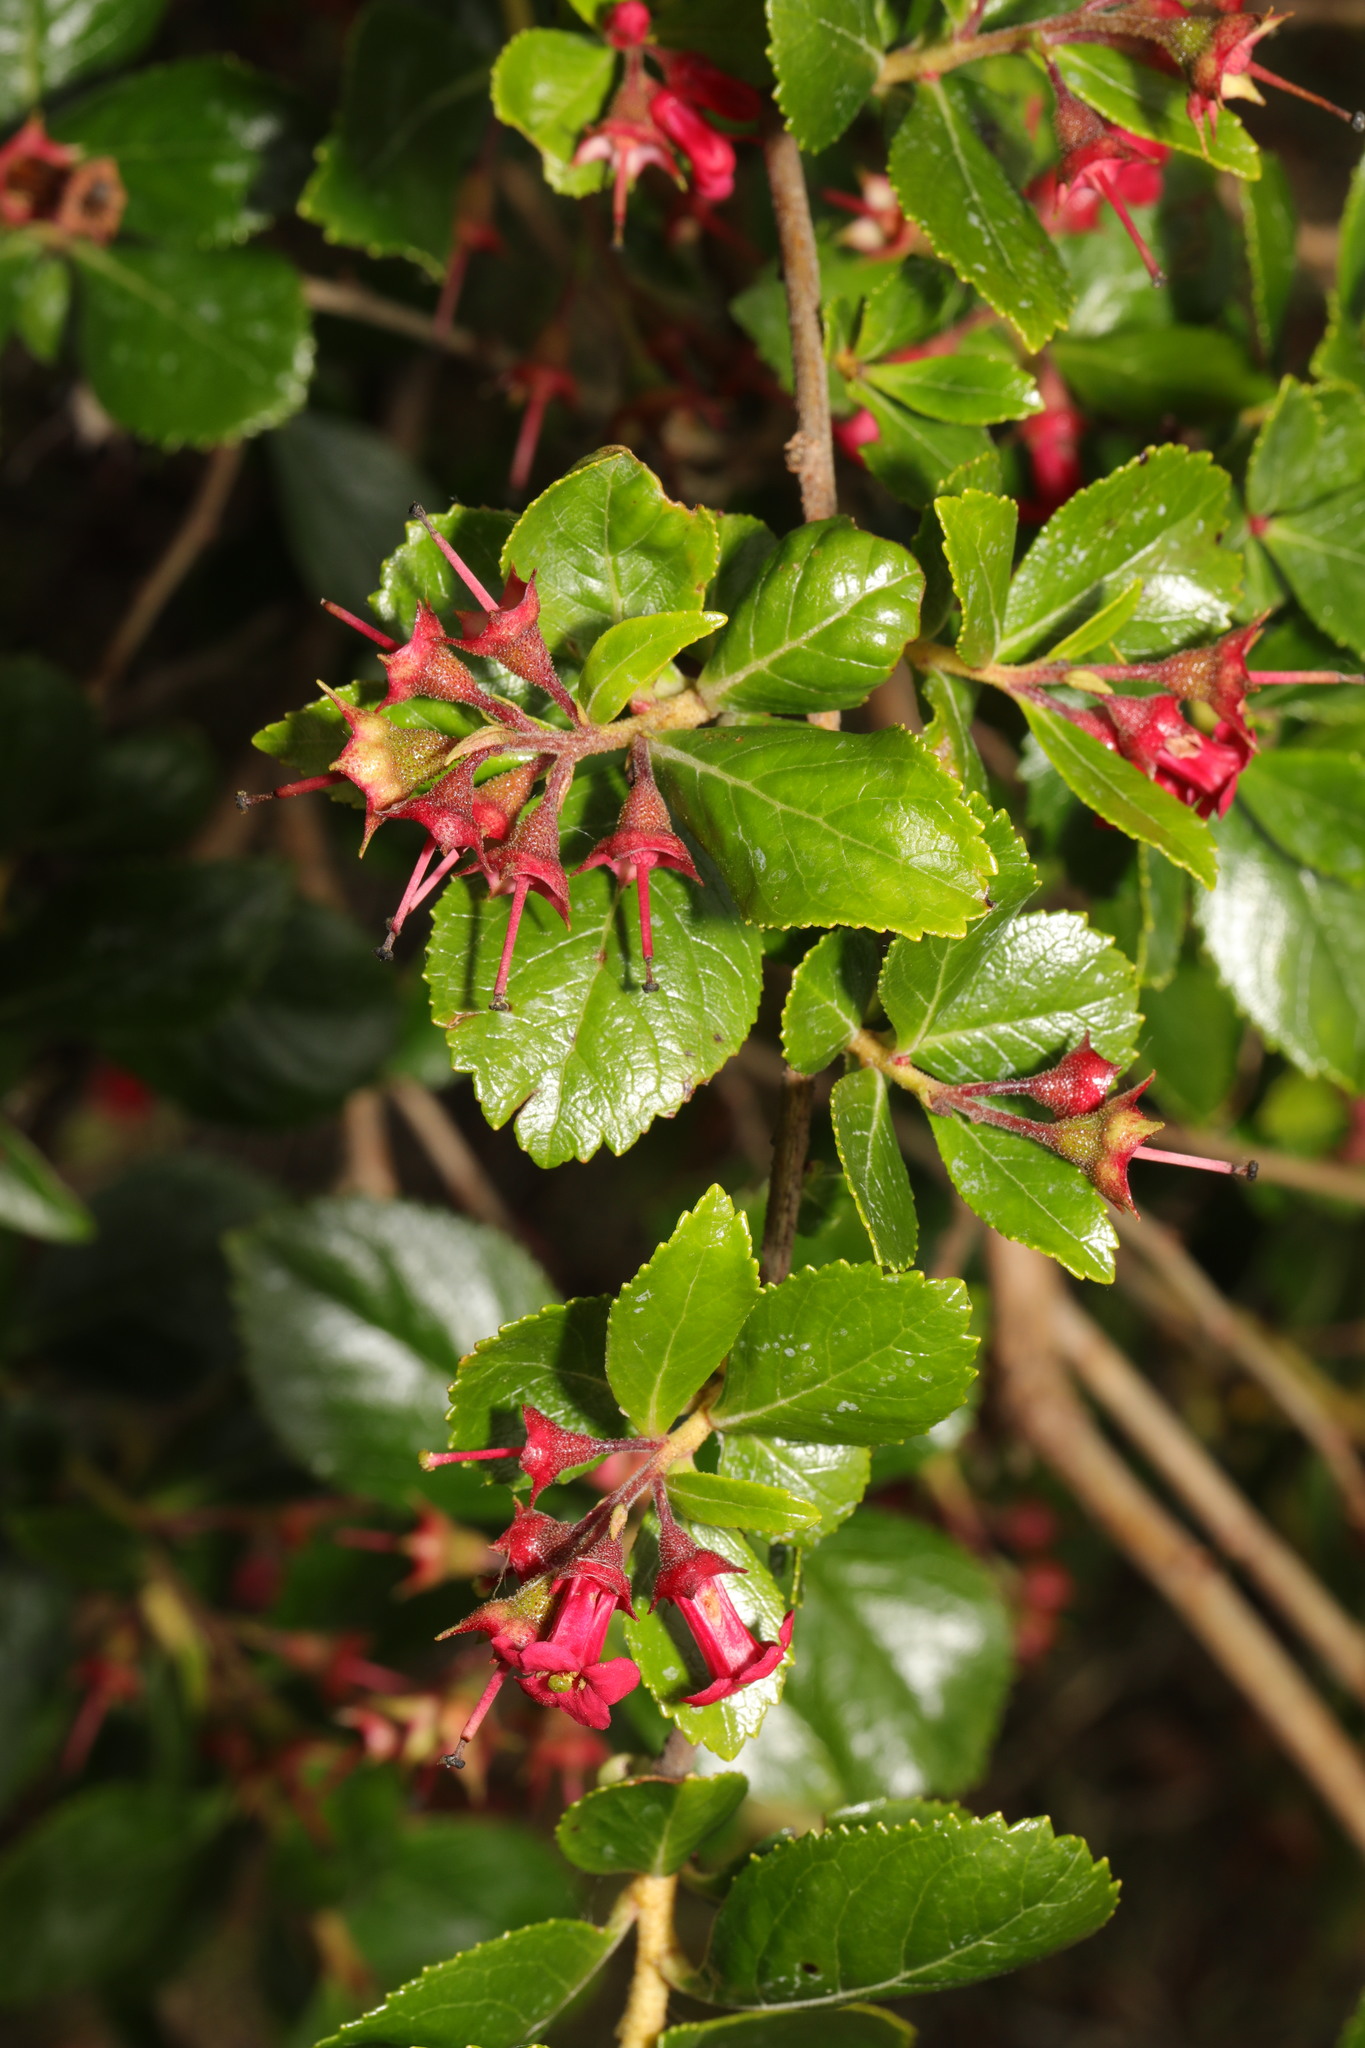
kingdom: Plantae
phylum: Tracheophyta
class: Magnoliopsida
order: Escalloniales
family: Escalloniaceae
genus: Escallonia
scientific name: Escallonia rubra
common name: Redclaws
